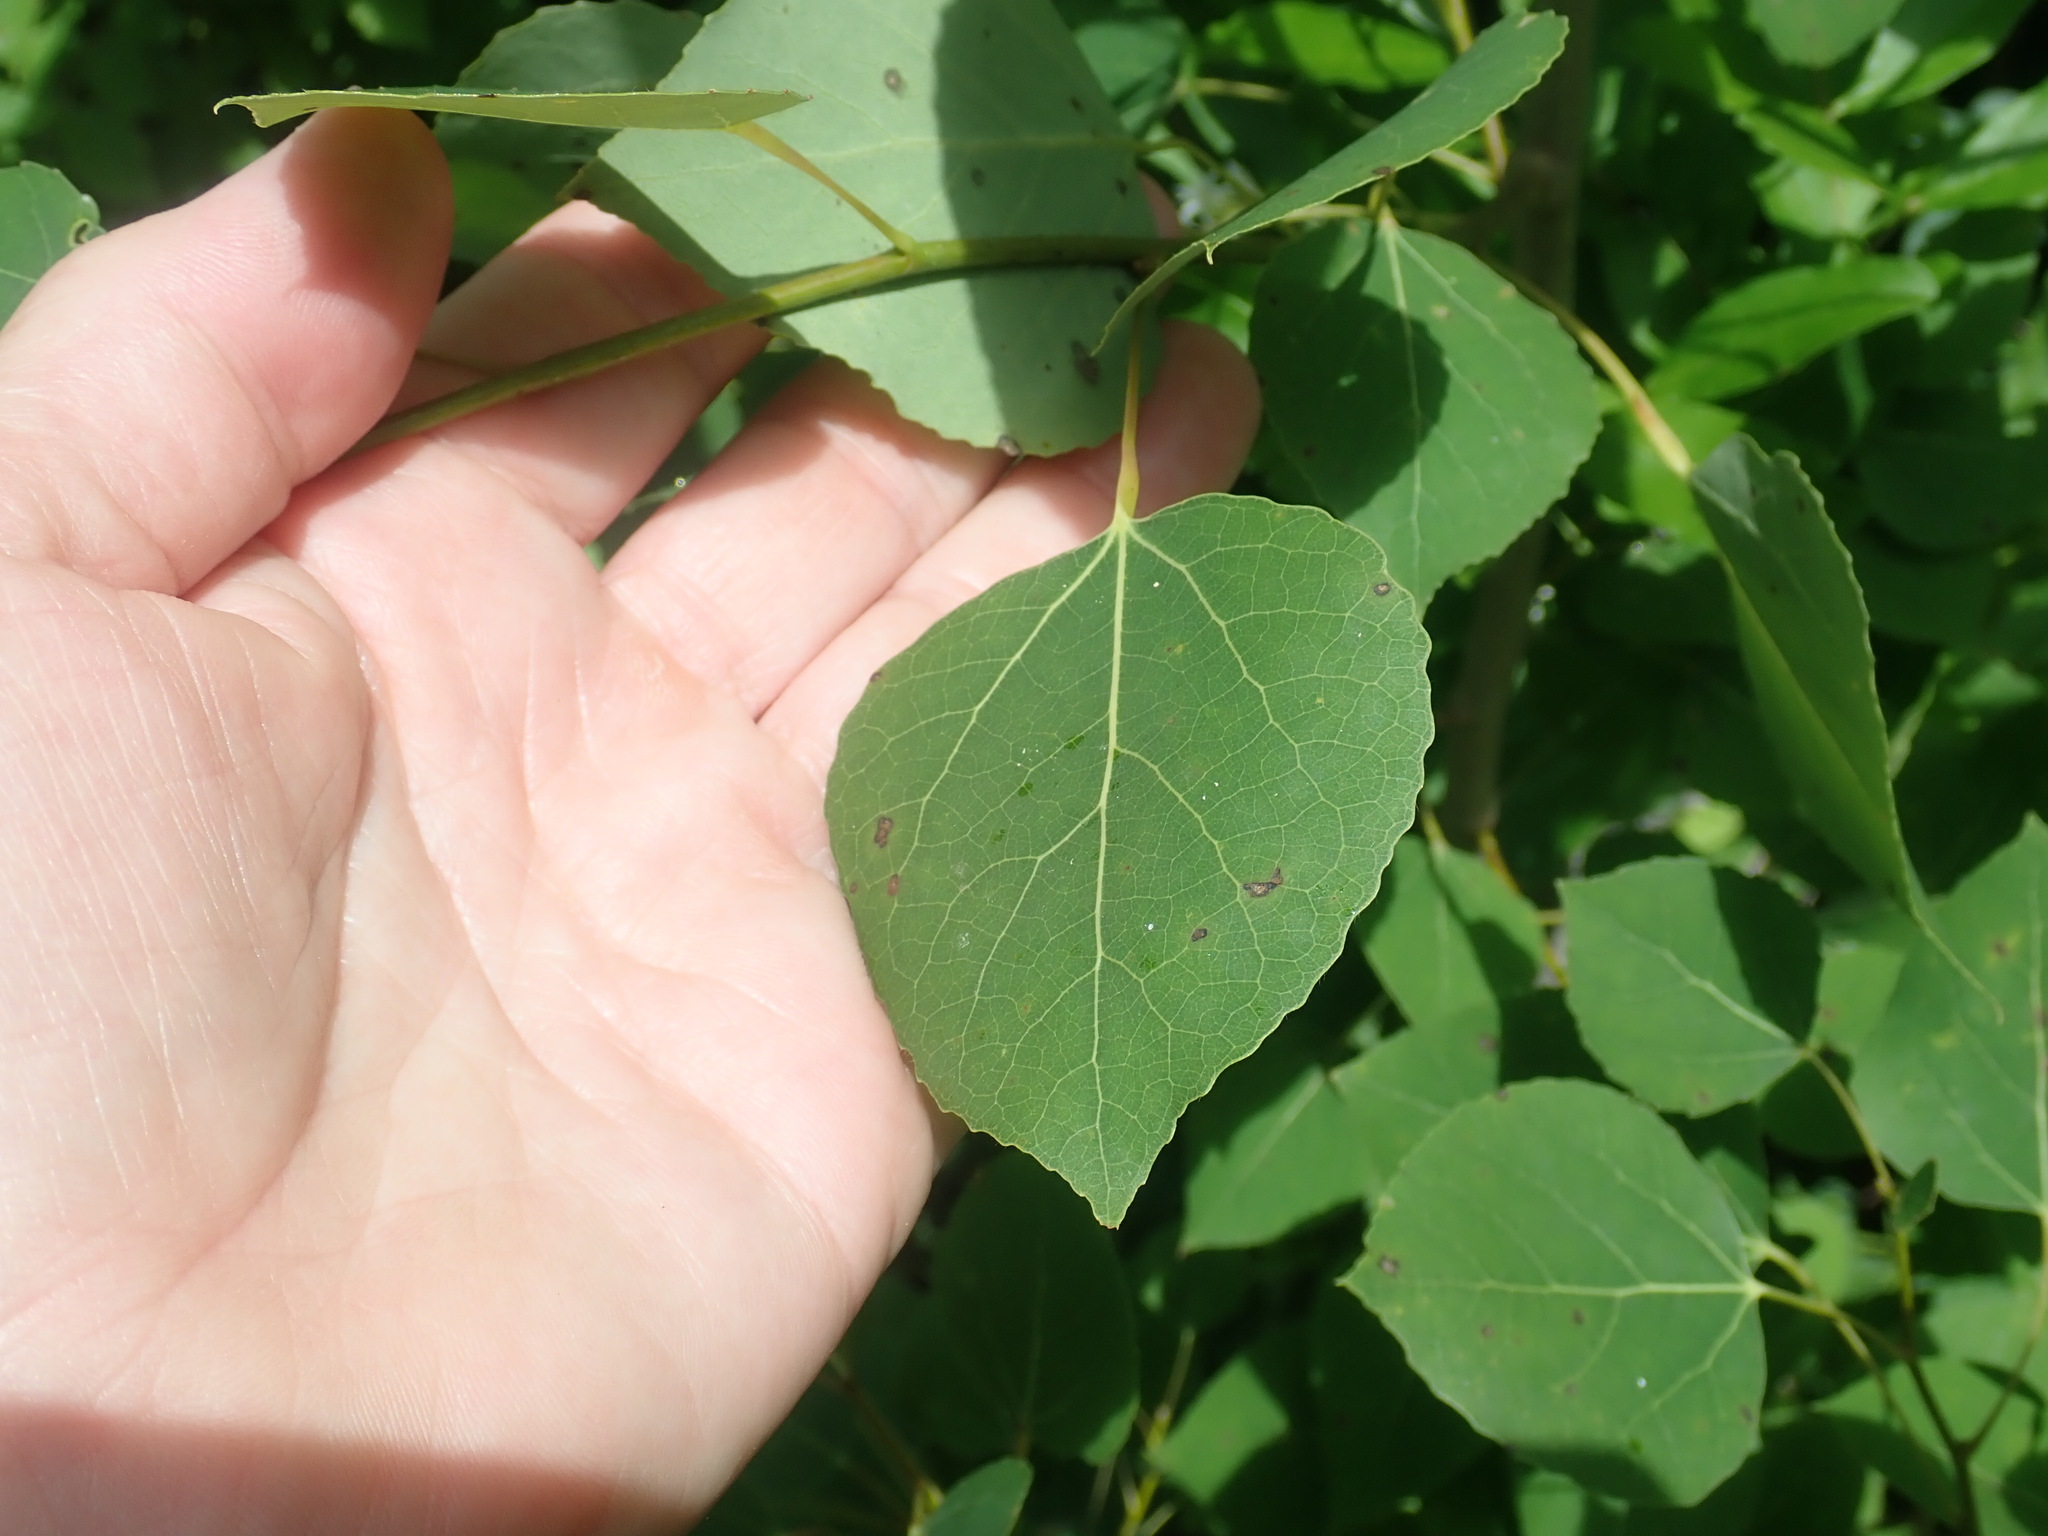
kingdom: Plantae
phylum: Tracheophyta
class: Magnoliopsida
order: Malpighiales
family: Salicaceae
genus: Populus
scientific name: Populus tremuloides
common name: Quaking aspen
